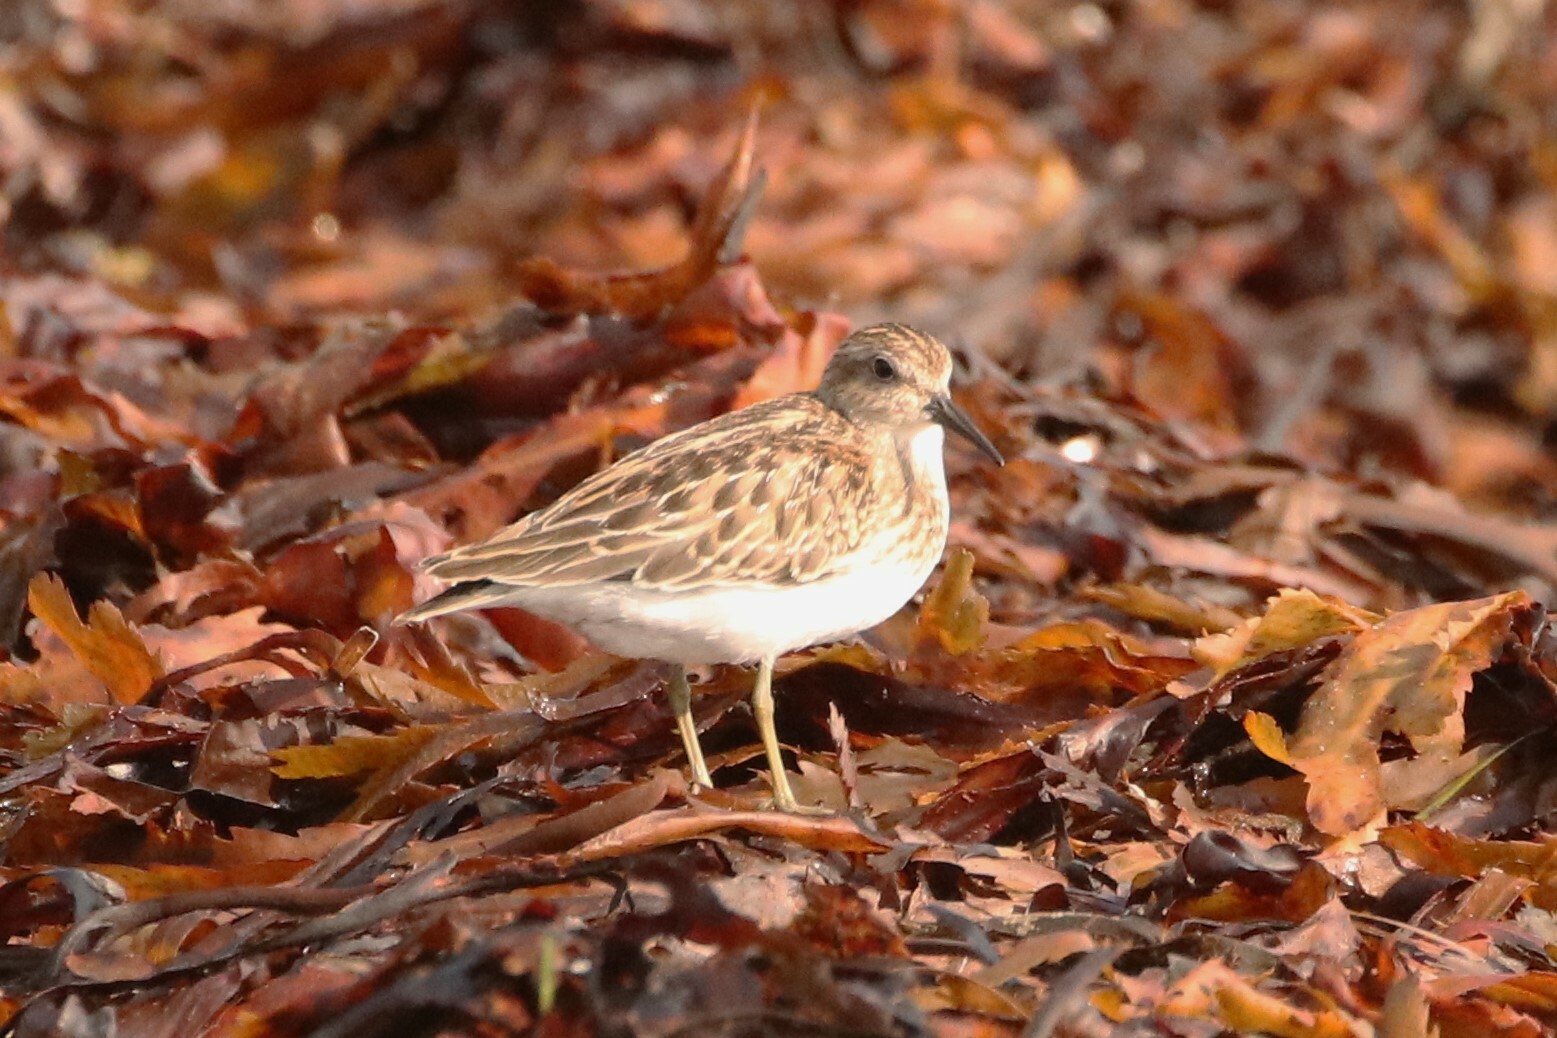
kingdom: Animalia
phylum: Chordata
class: Aves
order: Charadriiformes
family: Scolopacidae
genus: Calidris
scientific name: Calidris minutilla
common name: Least sandpiper
